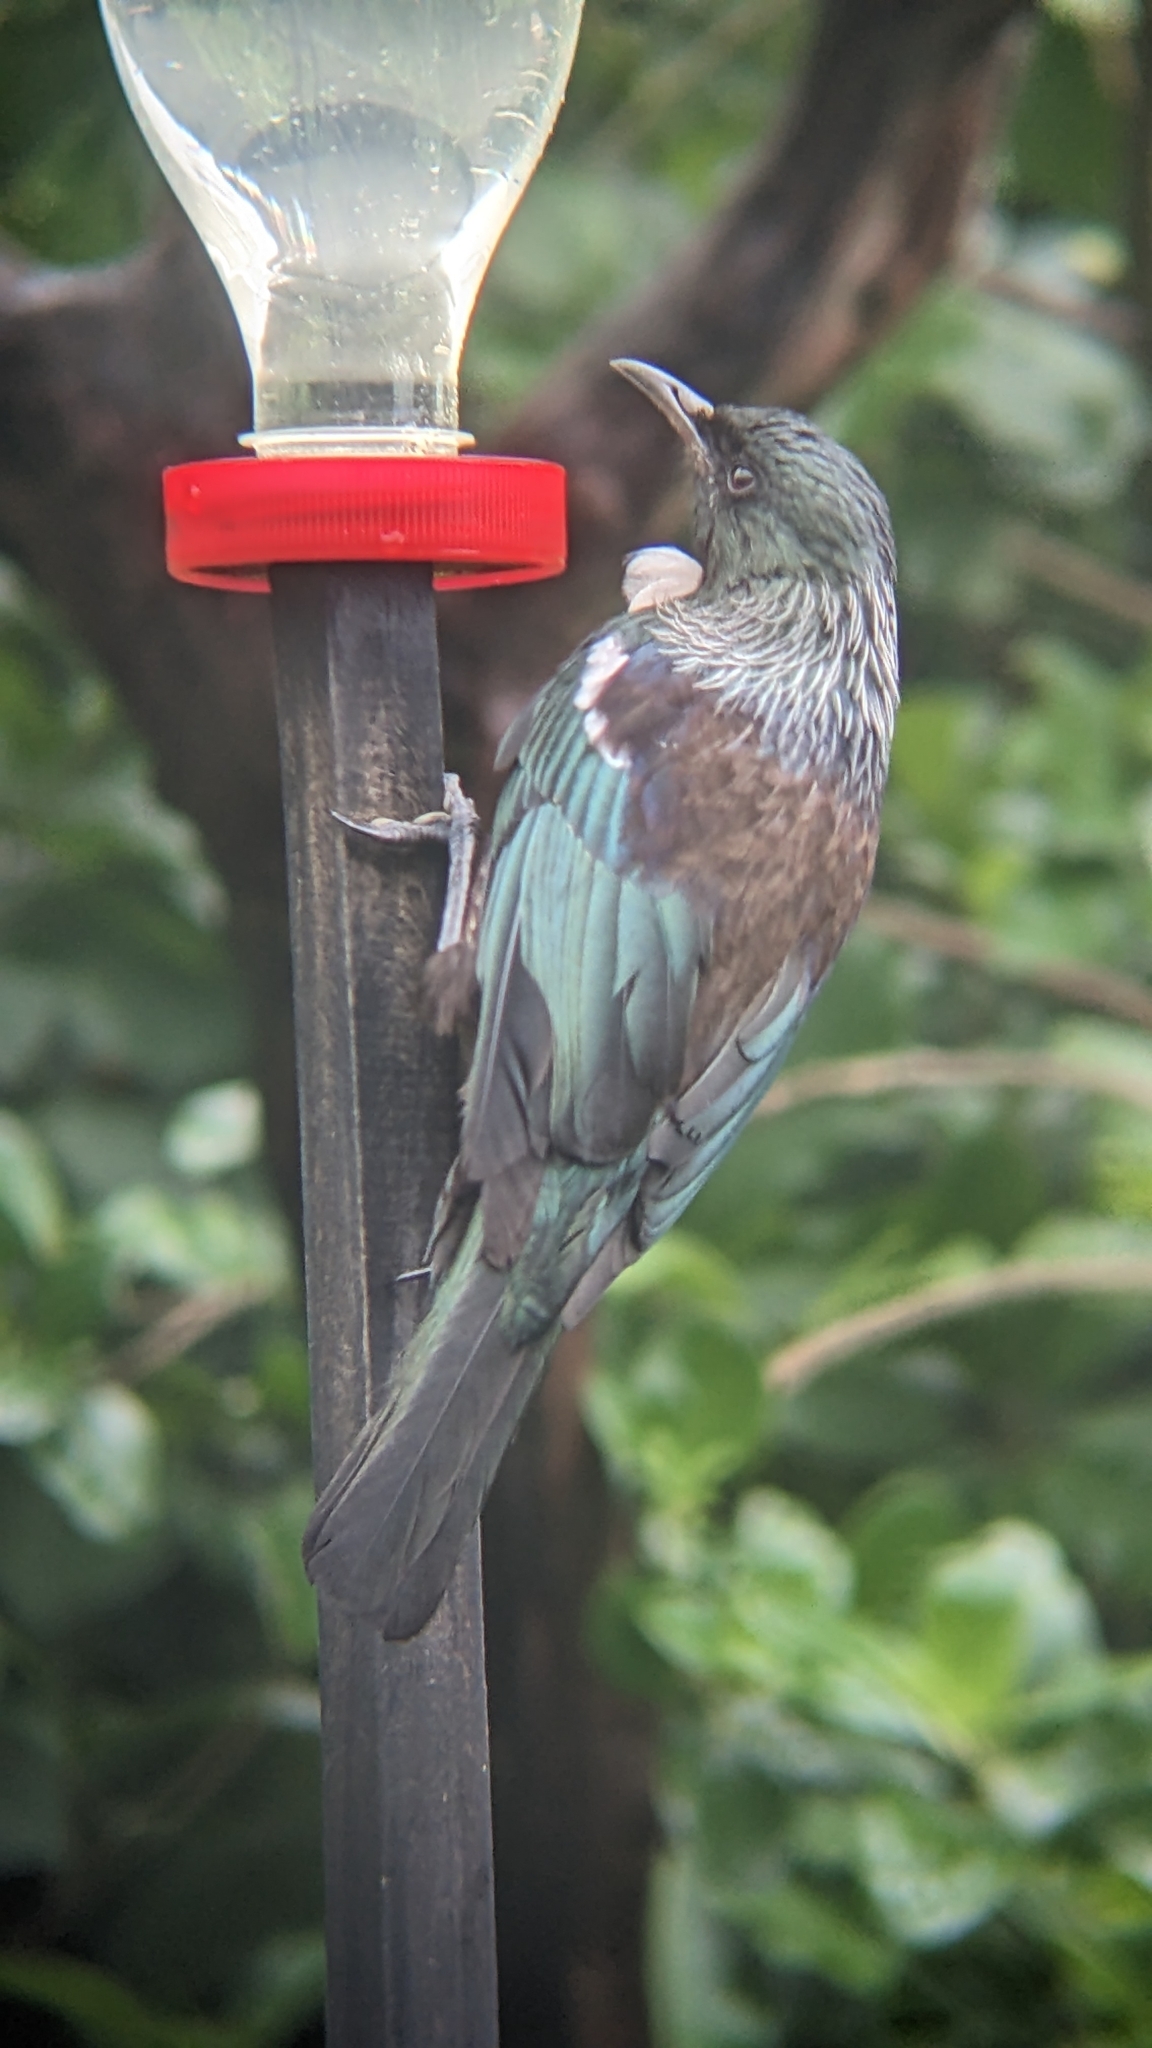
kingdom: Animalia
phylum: Chordata
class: Aves
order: Passeriformes
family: Meliphagidae
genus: Prosthemadera
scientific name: Prosthemadera novaeseelandiae
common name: Tui
